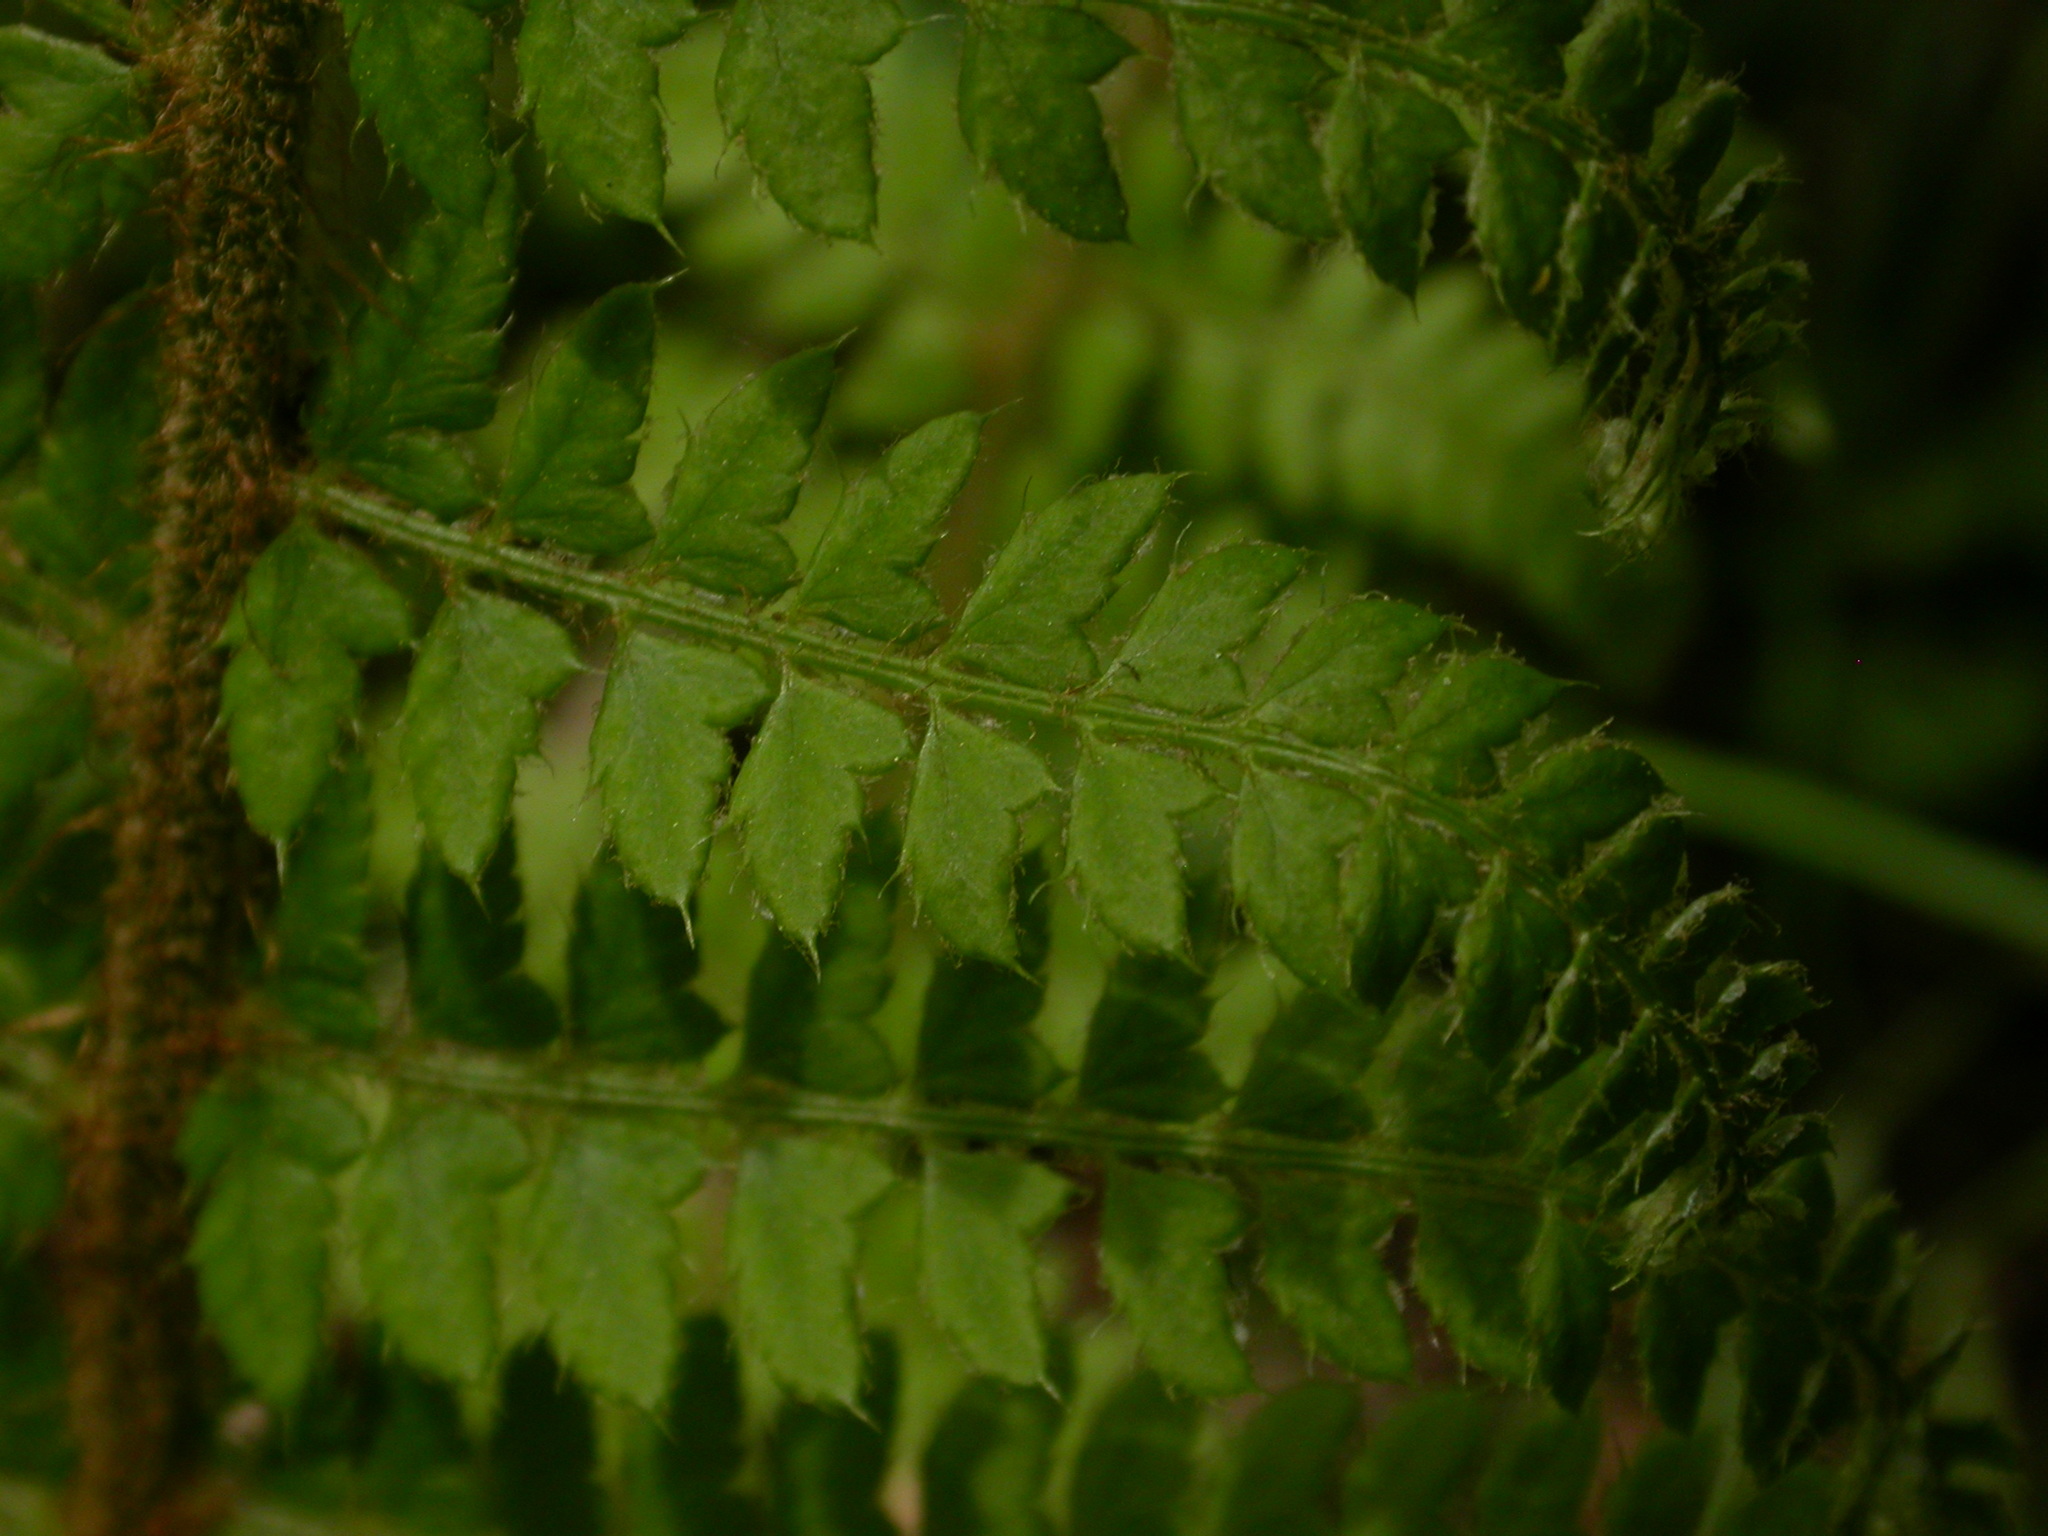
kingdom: Plantae
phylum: Tracheophyta
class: Polypodiopsida
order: Polypodiales
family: Dryopteridaceae
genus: Polystichum
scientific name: Polystichum setiferum
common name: Soft shield-fern
